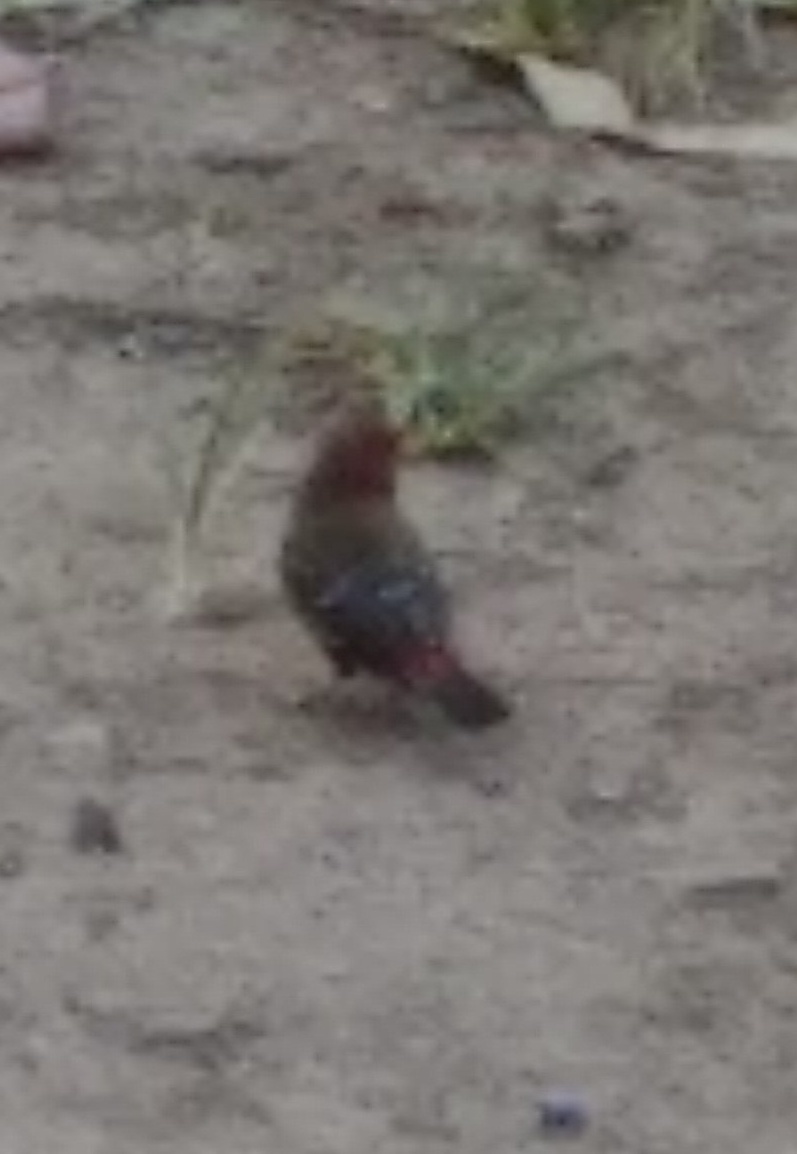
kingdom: Animalia
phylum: Chordata
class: Aves
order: Passeriformes
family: Estrildidae
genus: Amandava
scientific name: Amandava amandava
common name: Red avadavat
